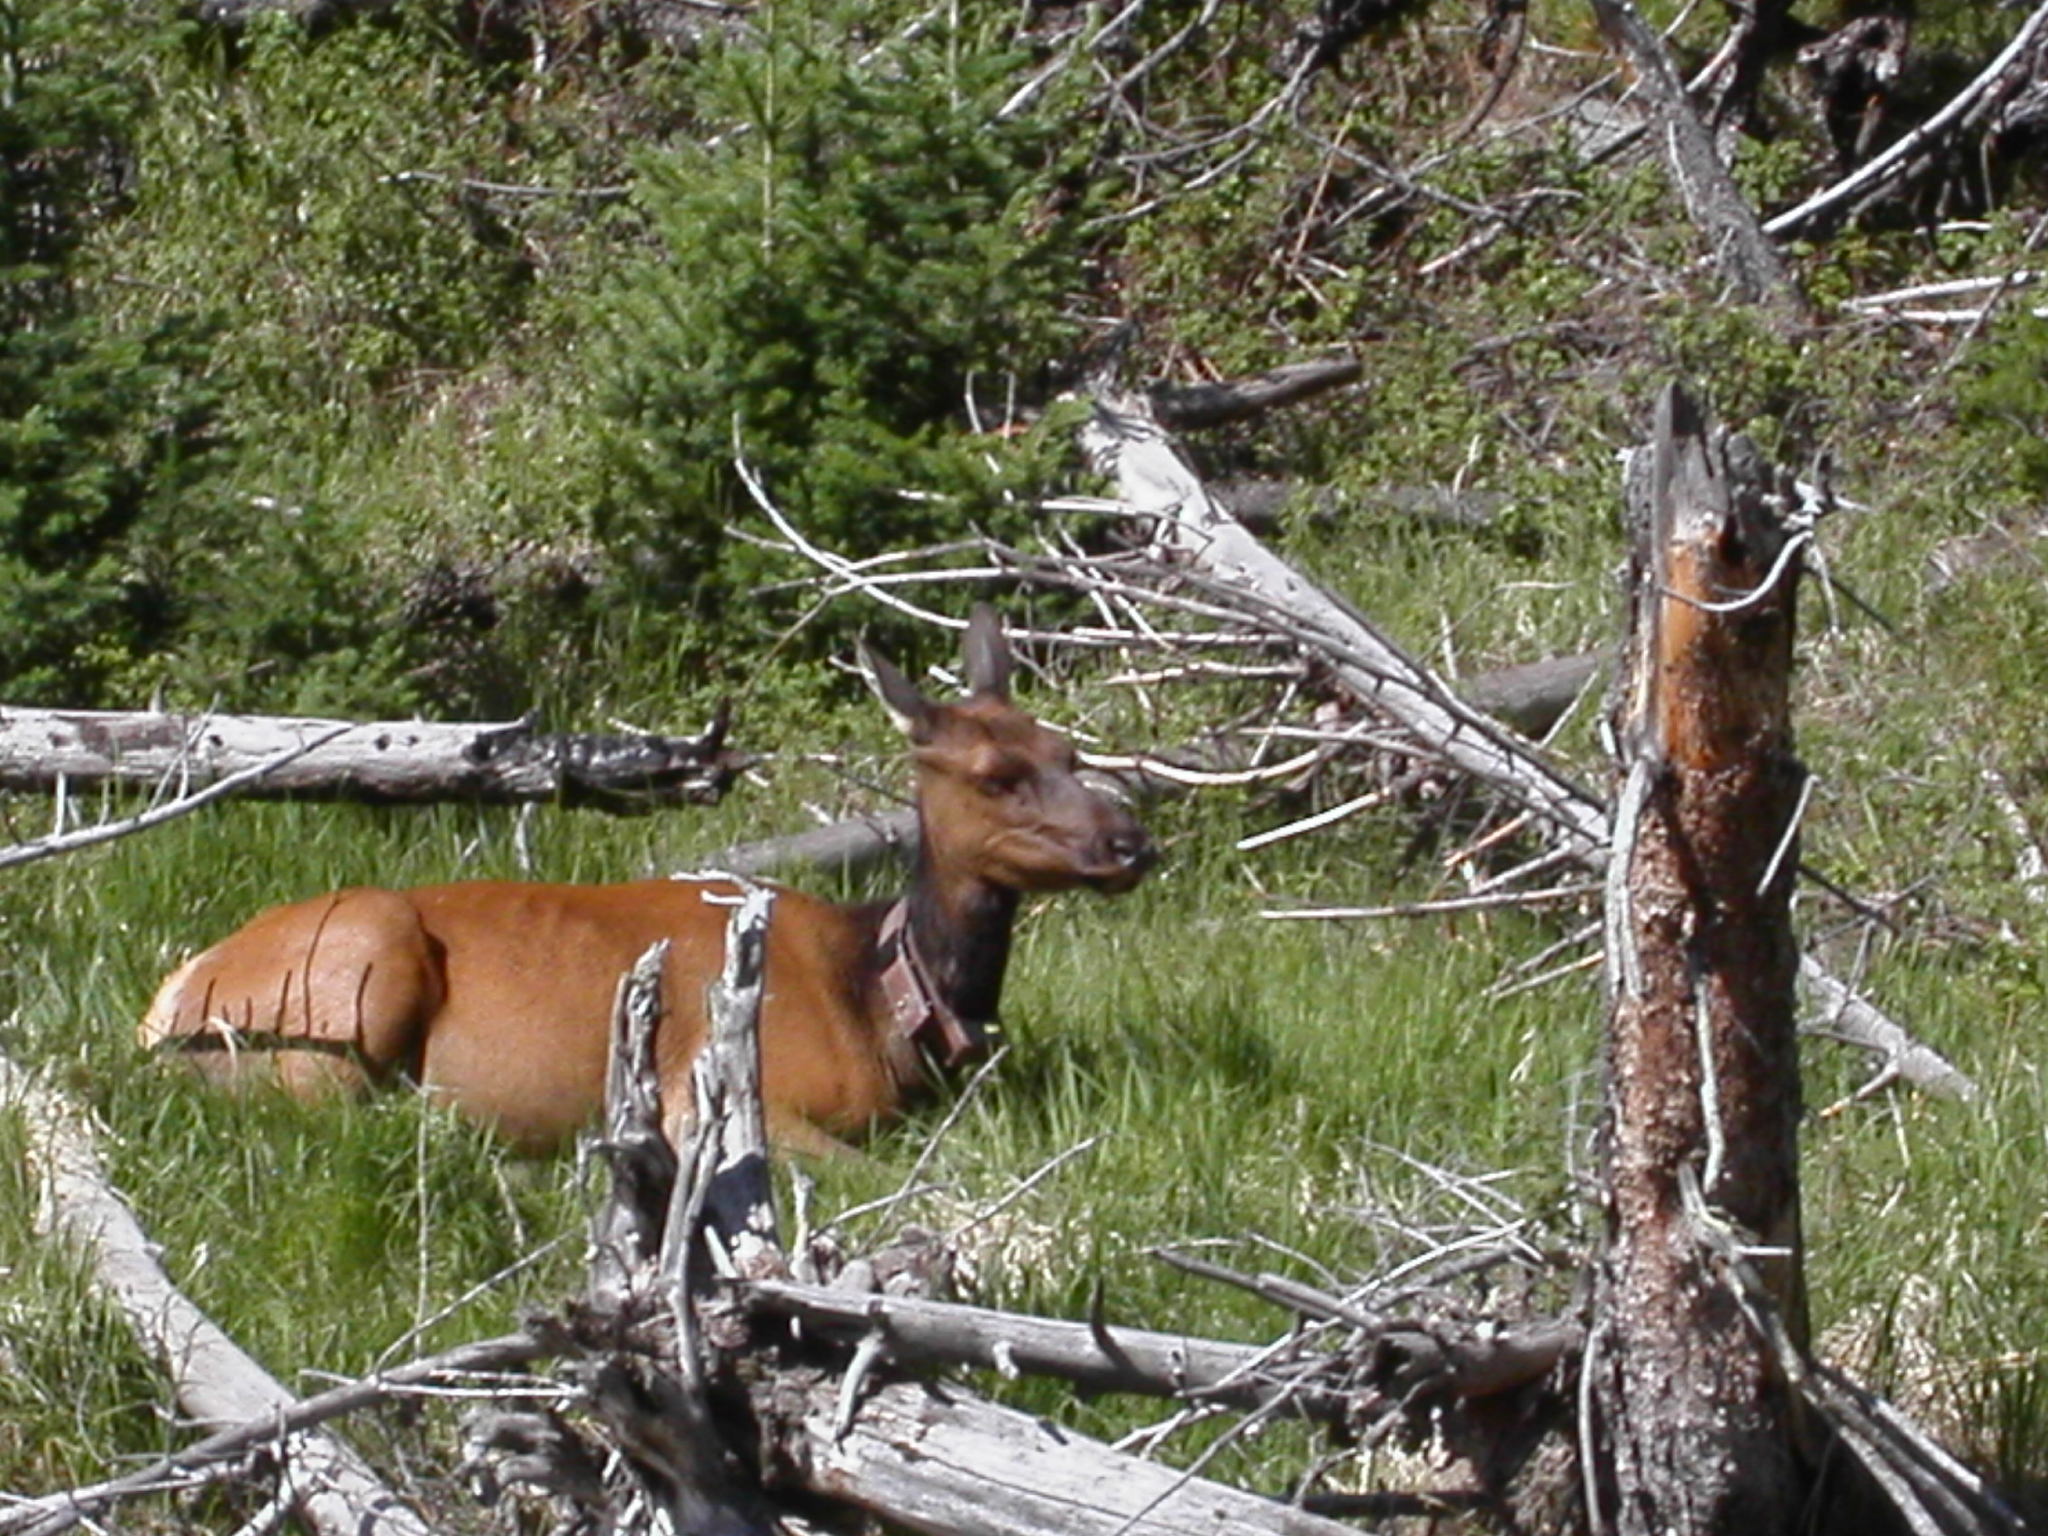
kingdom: Animalia
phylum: Chordata
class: Mammalia
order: Artiodactyla
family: Cervidae
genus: Cervus
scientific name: Cervus elaphus
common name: Red deer
